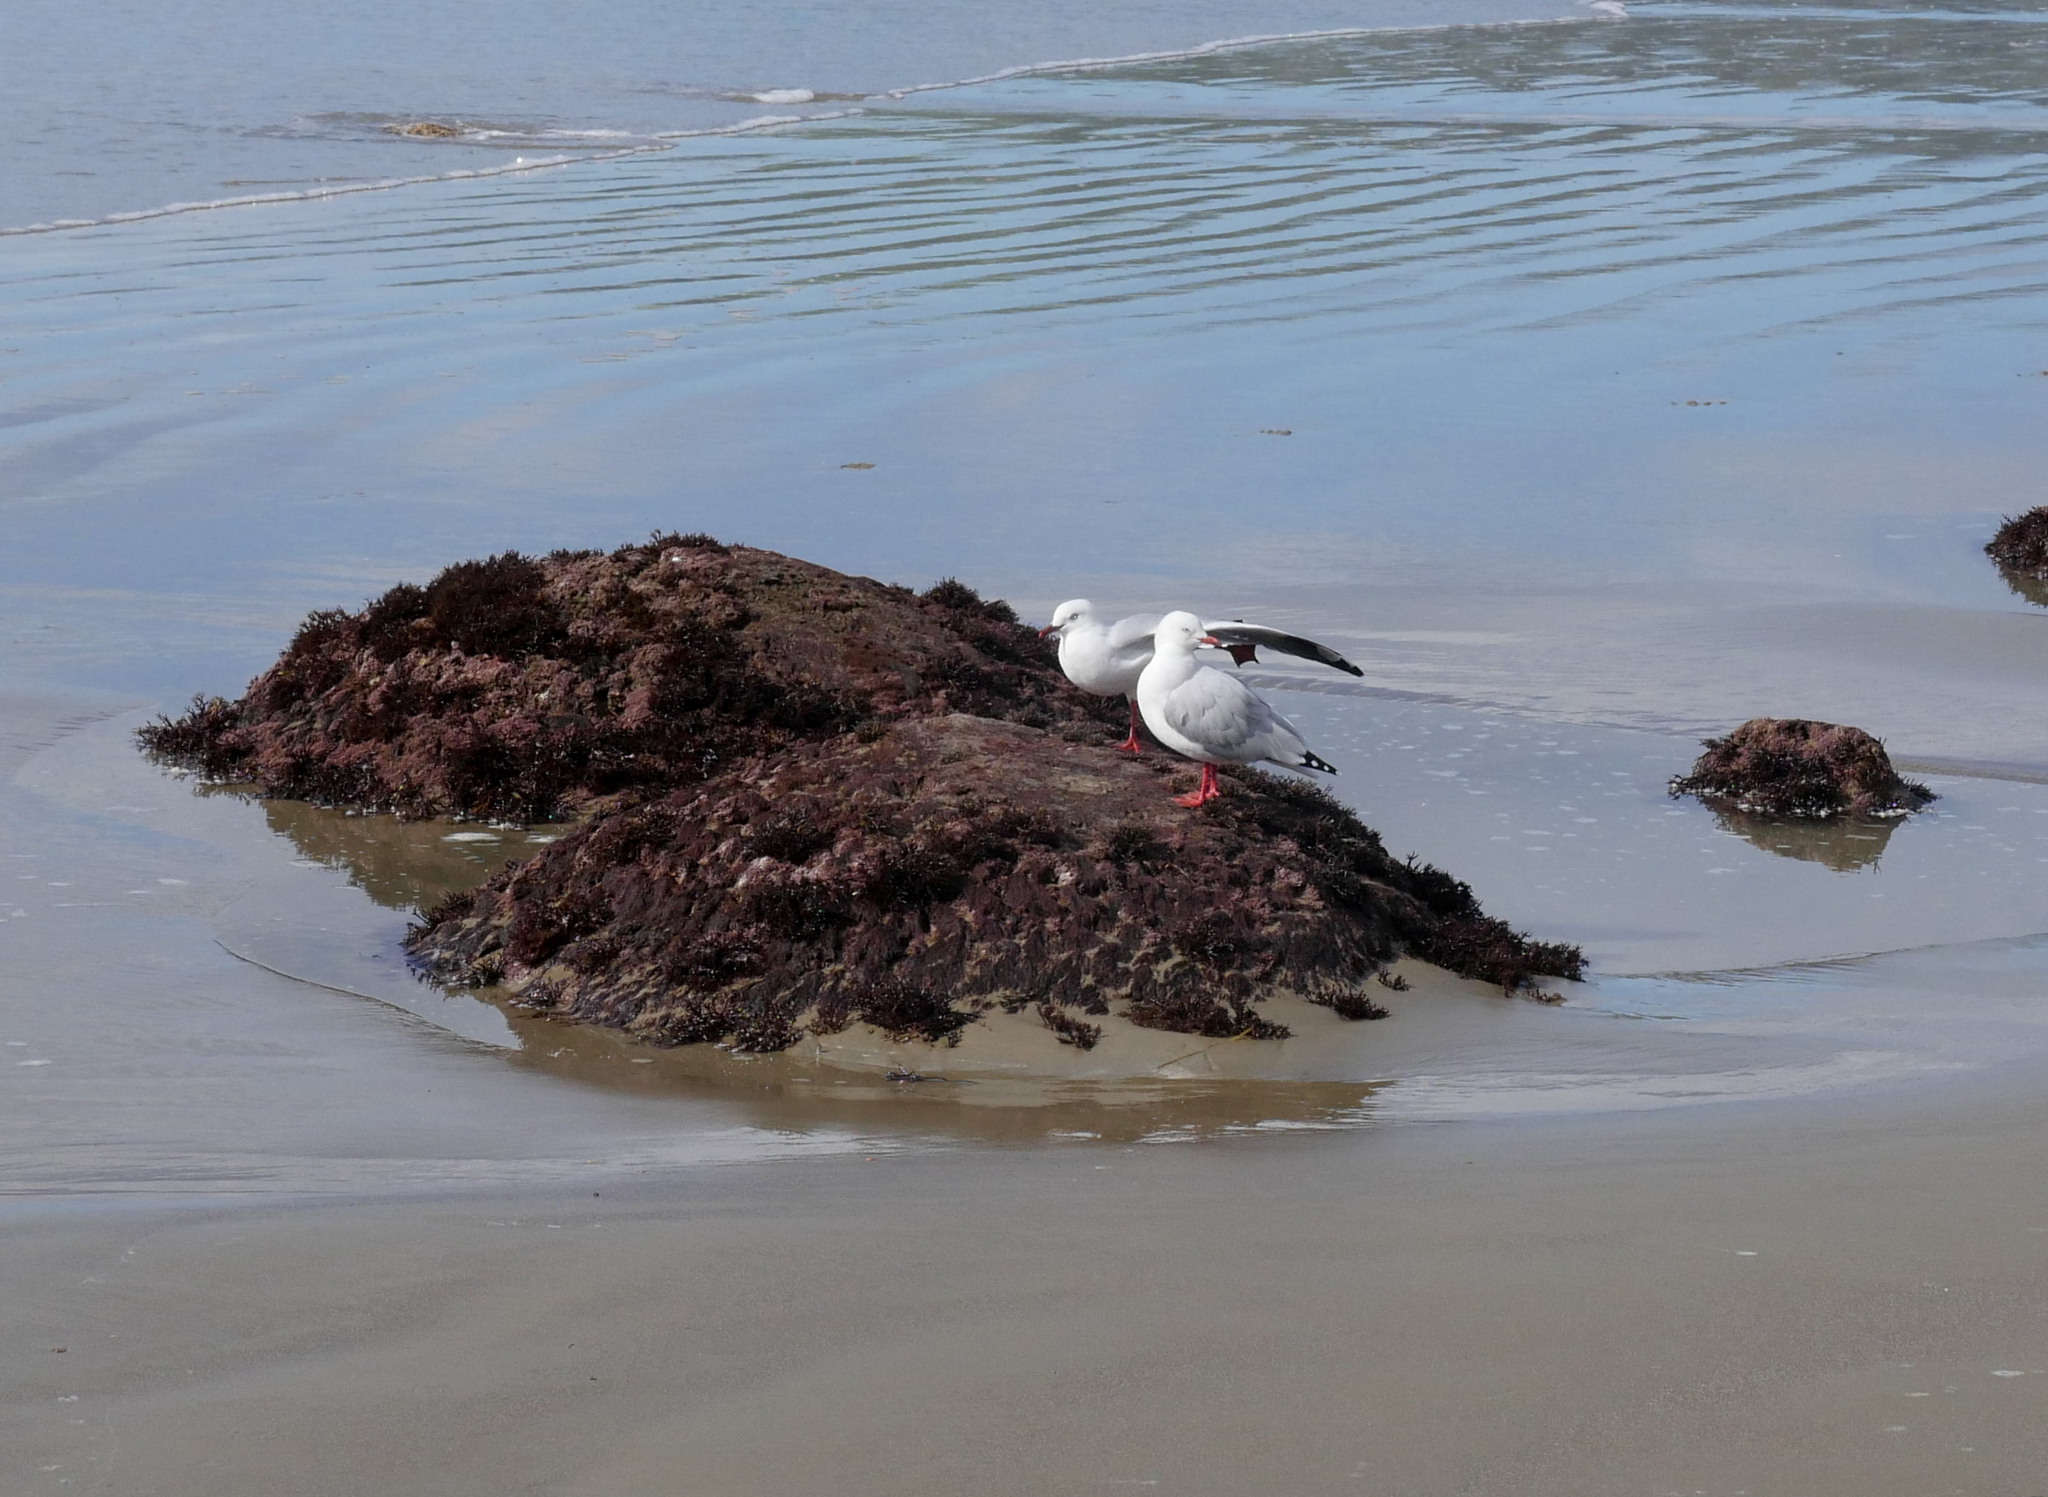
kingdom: Animalia
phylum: Chordata
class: Aves
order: Charadriiformes
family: Laridae
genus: Chroicocephalus
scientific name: Chroicocephalus novaehollandiae
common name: Silver gull
